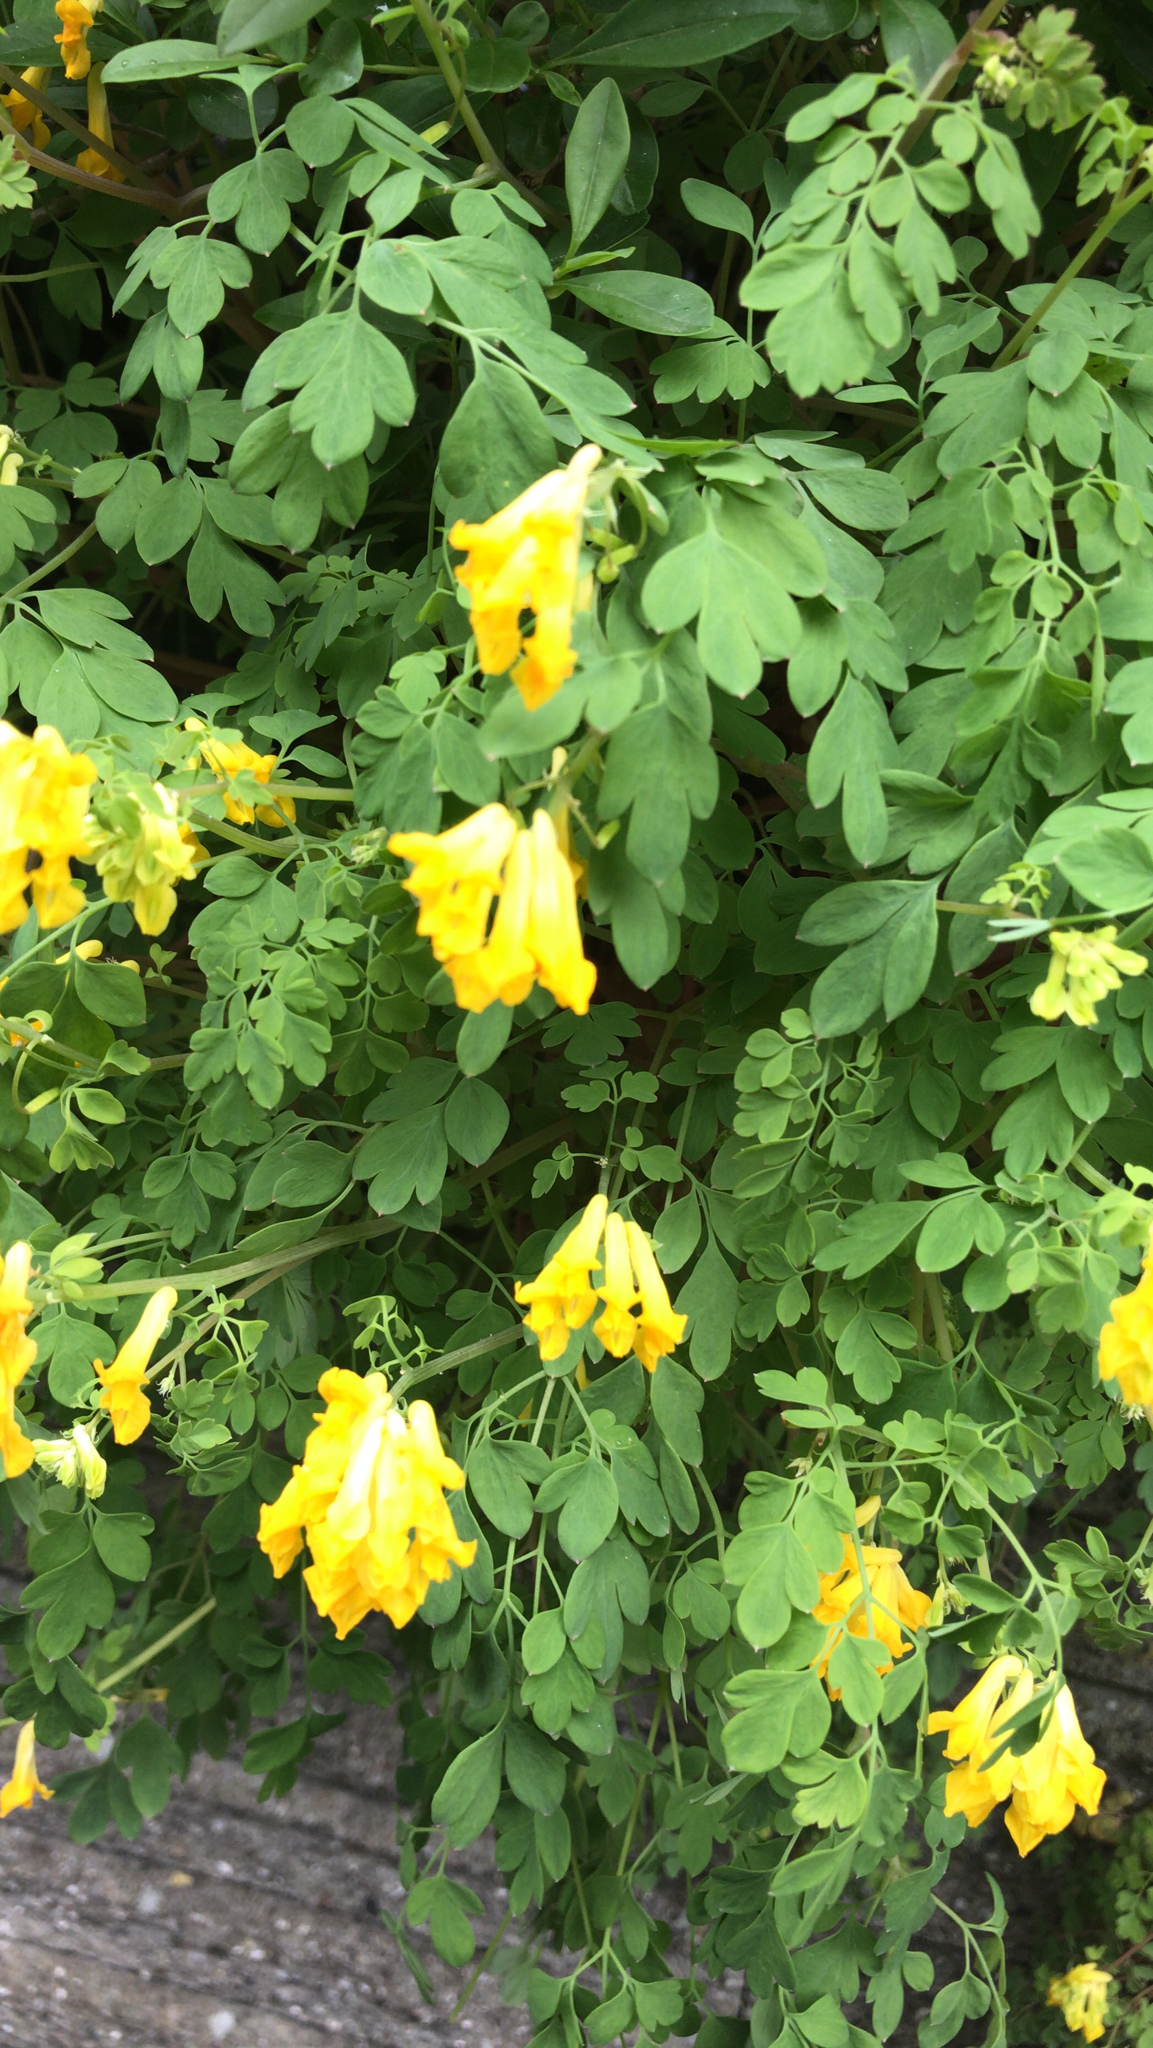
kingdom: Plantae
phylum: Tracheophyta
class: Magnoliopsida
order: Ranunculales
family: Papaveraceae
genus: Pseudofumaria
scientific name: Pseudofumaria lutea
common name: Yellow corydalis
